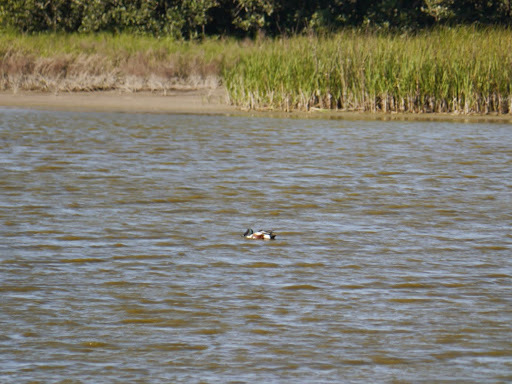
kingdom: Animalia
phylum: Chordata
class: Aves
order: Anseriformes
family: Anatidae
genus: Spatula
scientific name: Spatula clypeata
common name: Northern shoveler
